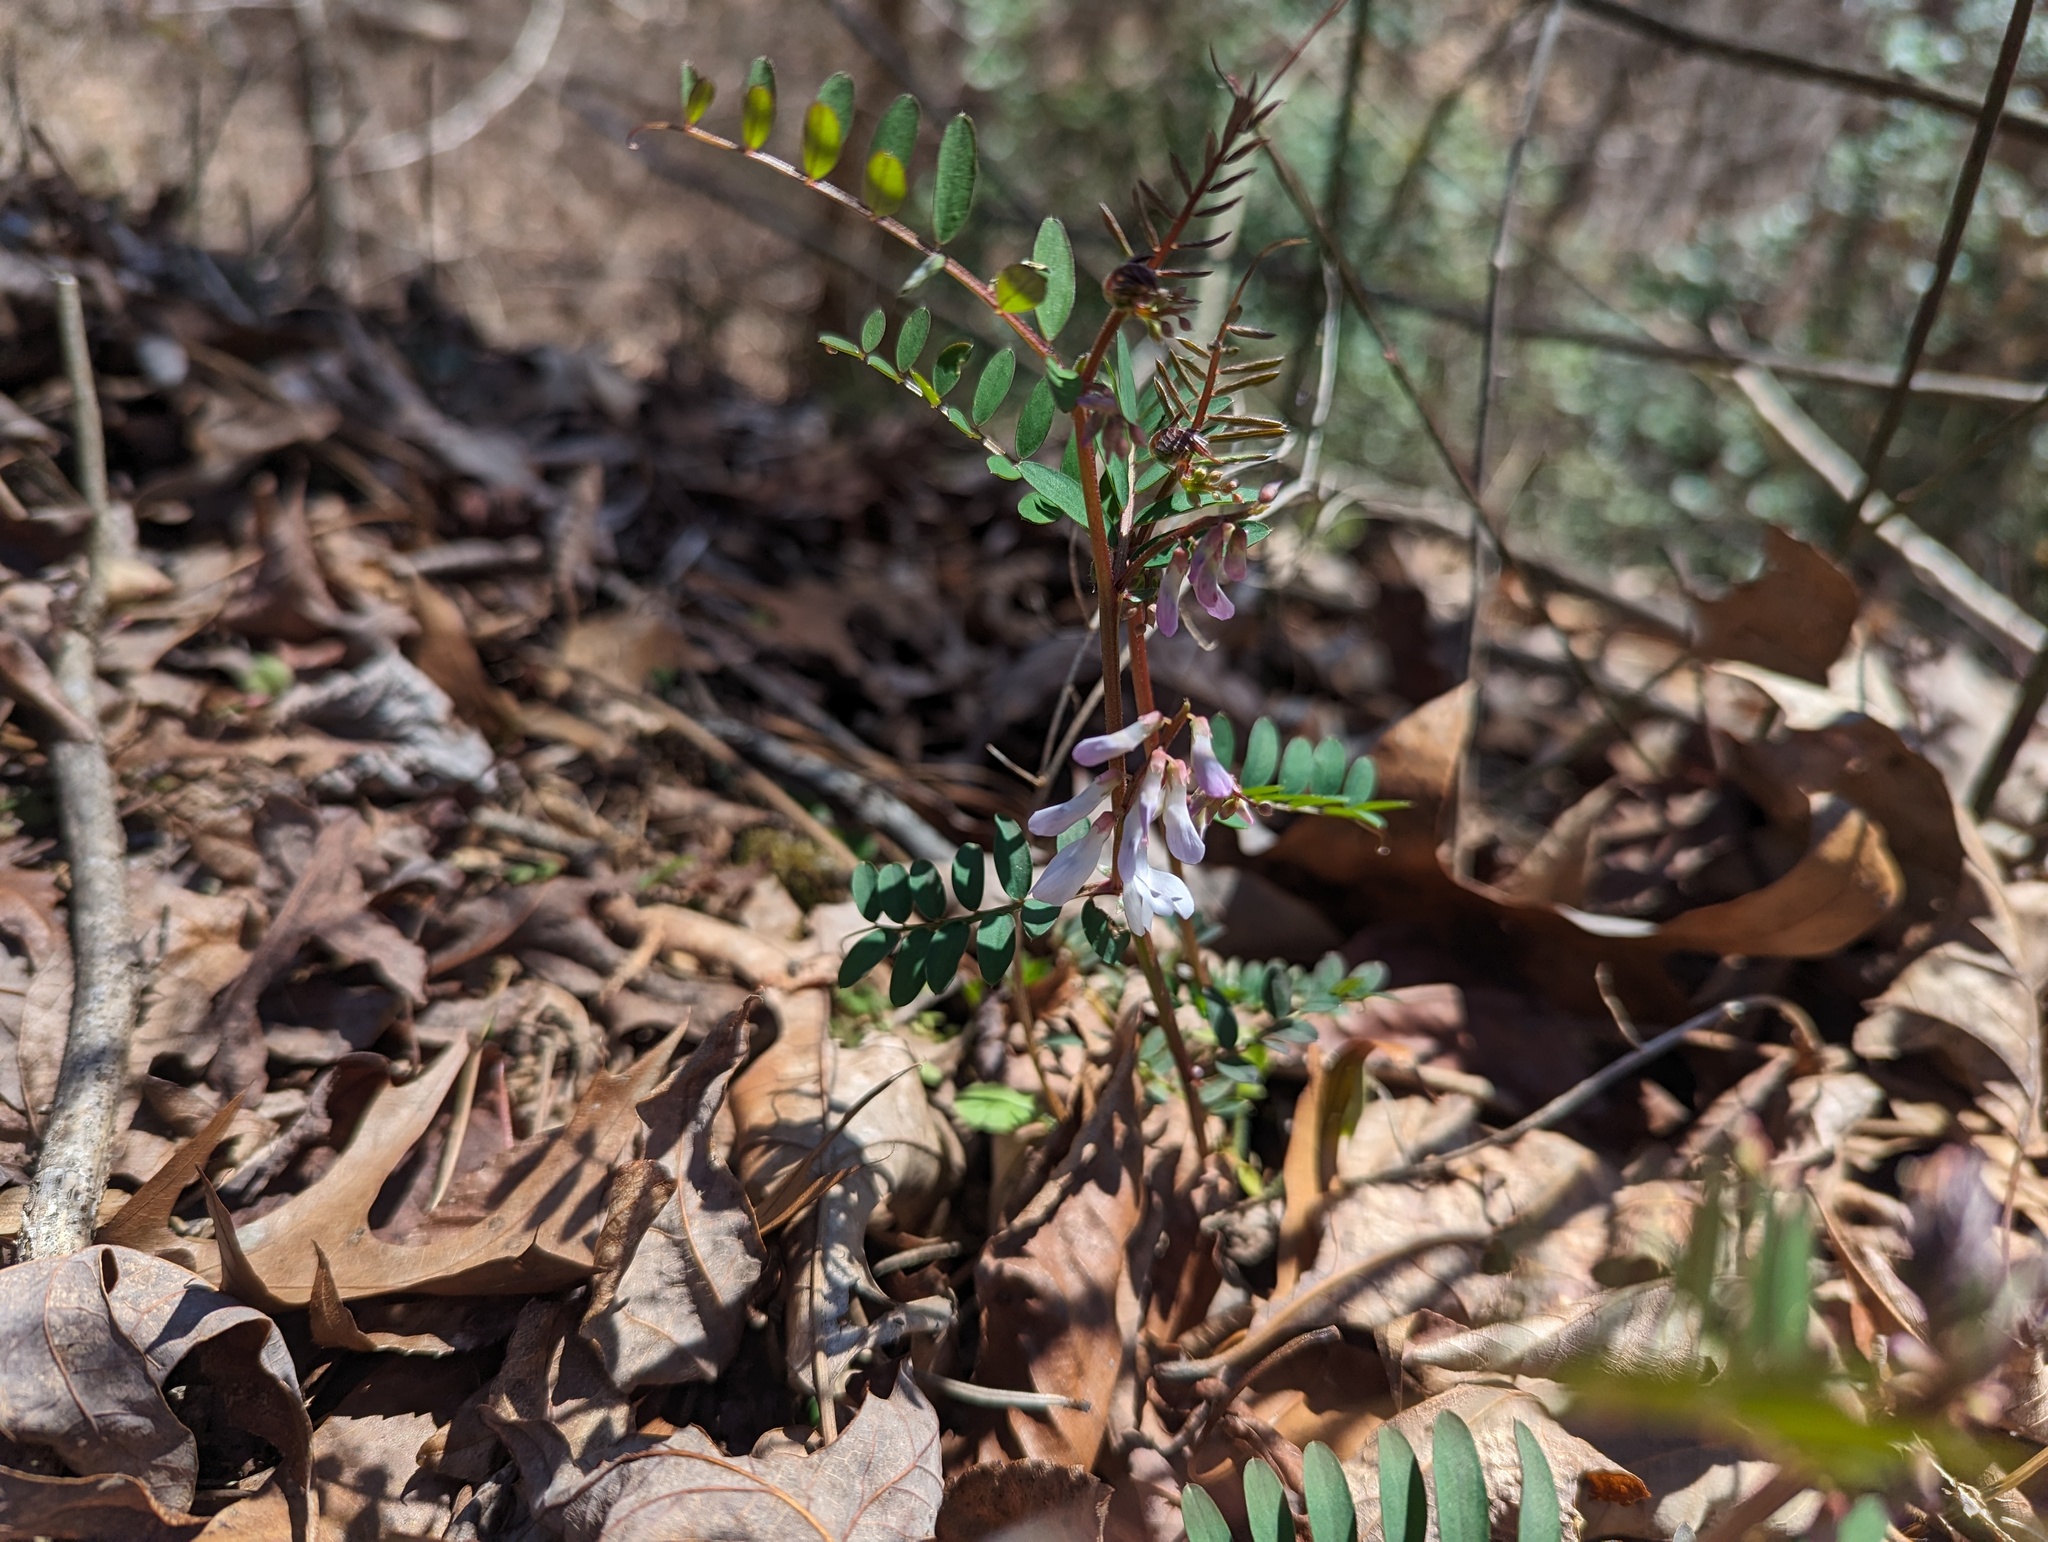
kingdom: Plantae
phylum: Tracheophyta
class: Magnoliopsida
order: Fabales
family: Fabaceae
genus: Vicia
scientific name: Vicia caroliniana
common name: Carolina vetch
